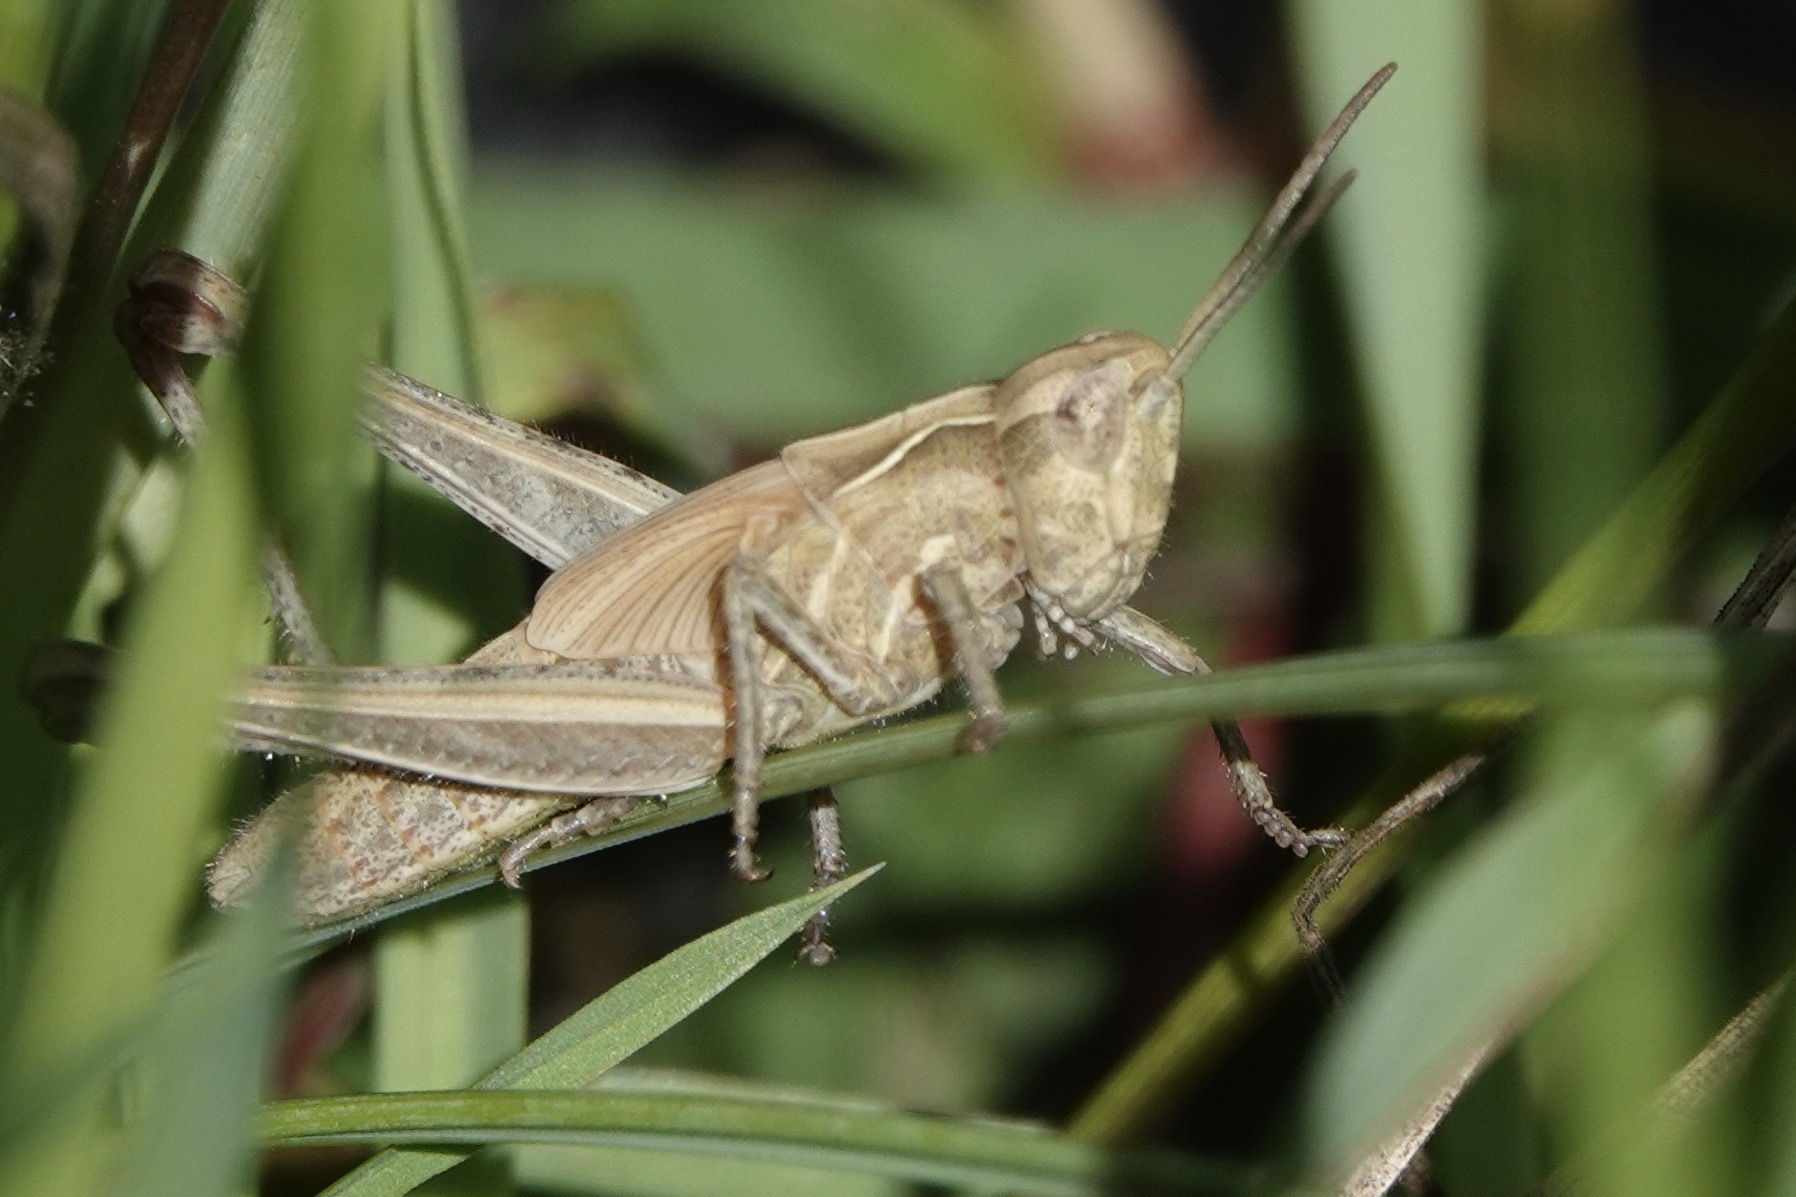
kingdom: Animalia
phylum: Arthropoda
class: Insecta
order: Orthoptera
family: Acrididae
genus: Chorthippus
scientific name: Chorthippus brunneus
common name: Field grasshopper
